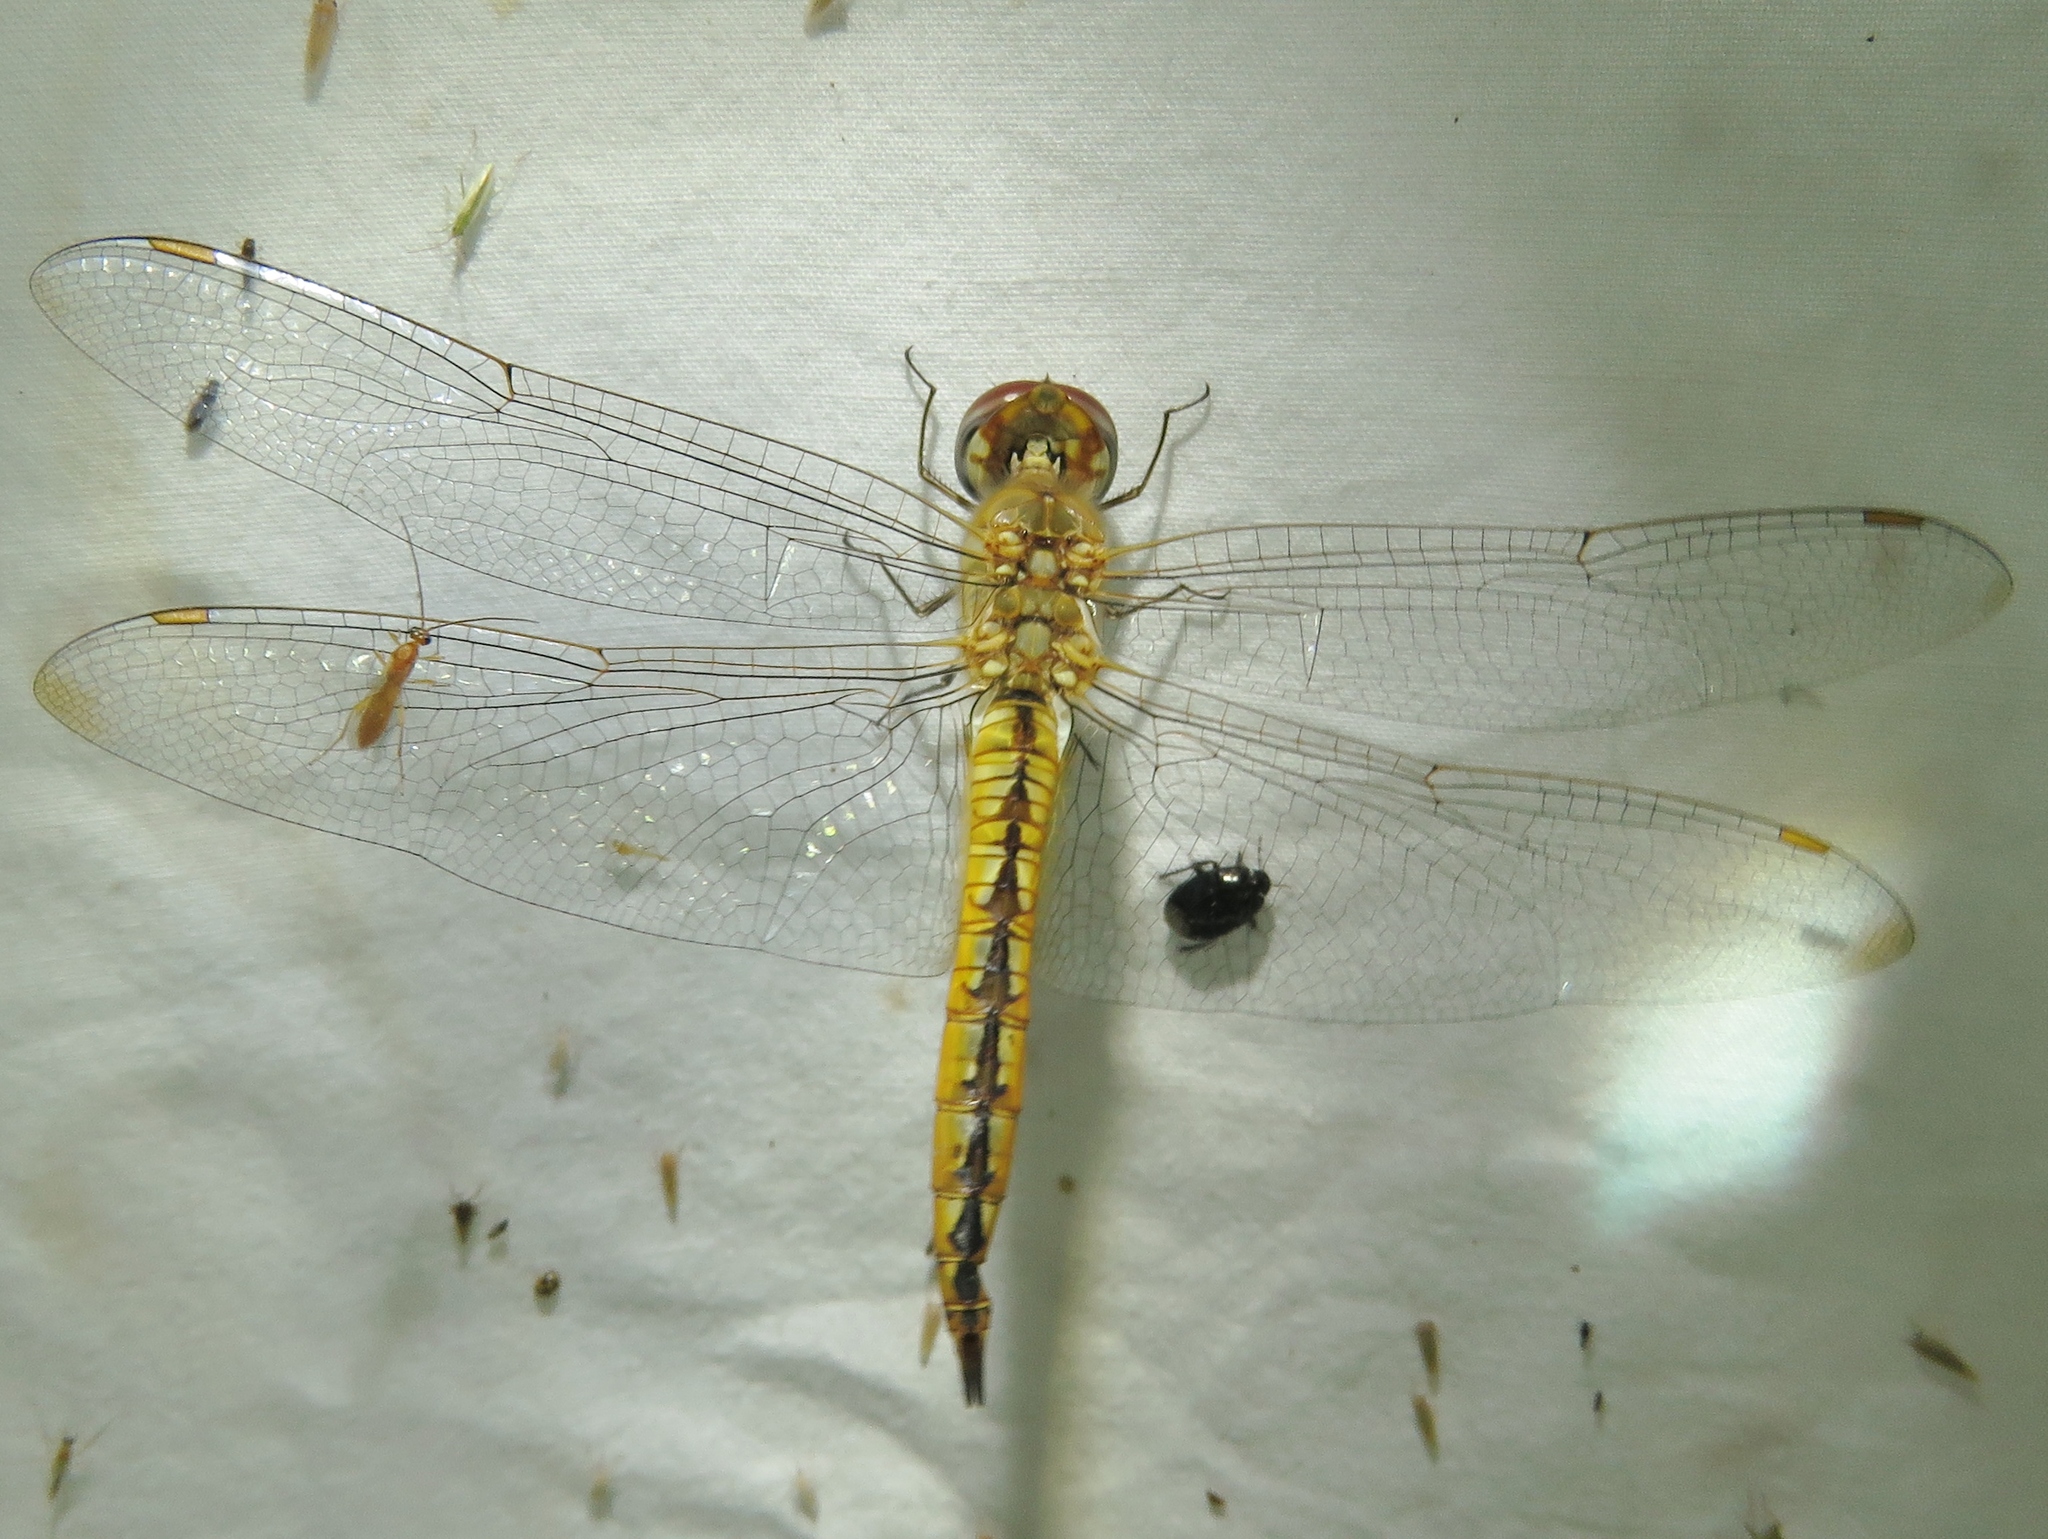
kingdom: Animalia
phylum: Arthropoda
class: Insecta
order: Odonata
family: Libellulidae
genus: Pantala
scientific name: Pantala flavescens
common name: Wandering glider
